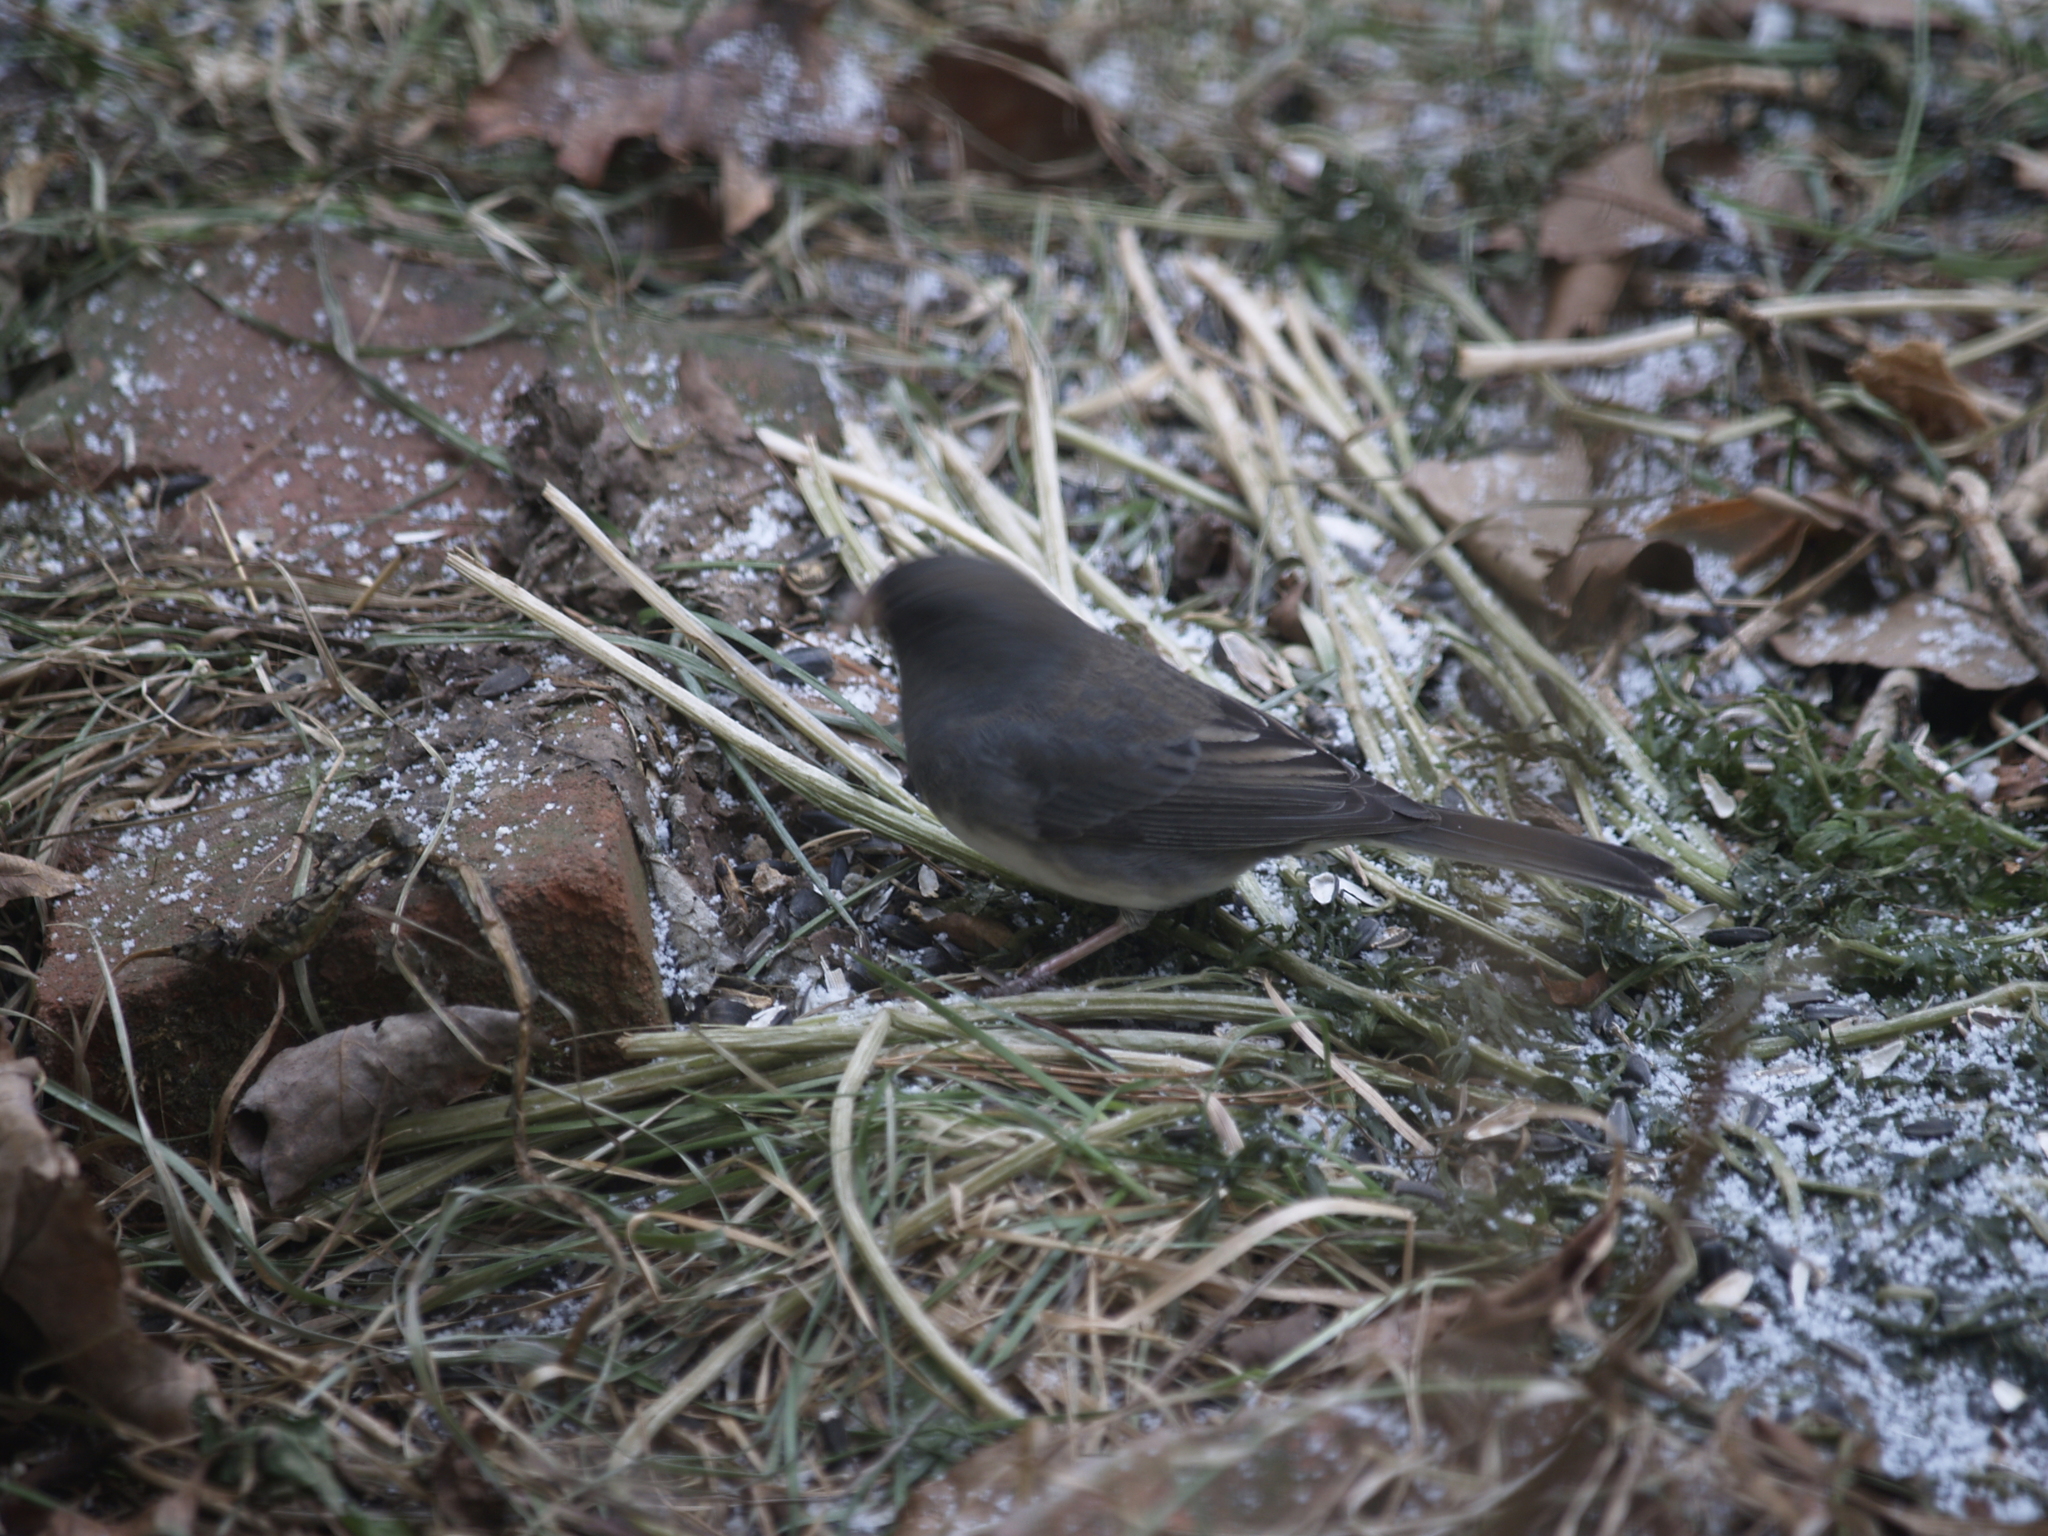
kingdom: Animalia
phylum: Chordata
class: Aves
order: Passeriformes
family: Passerellidae
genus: Junco
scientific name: Junco hyemalis
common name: Dark-eyed junco
